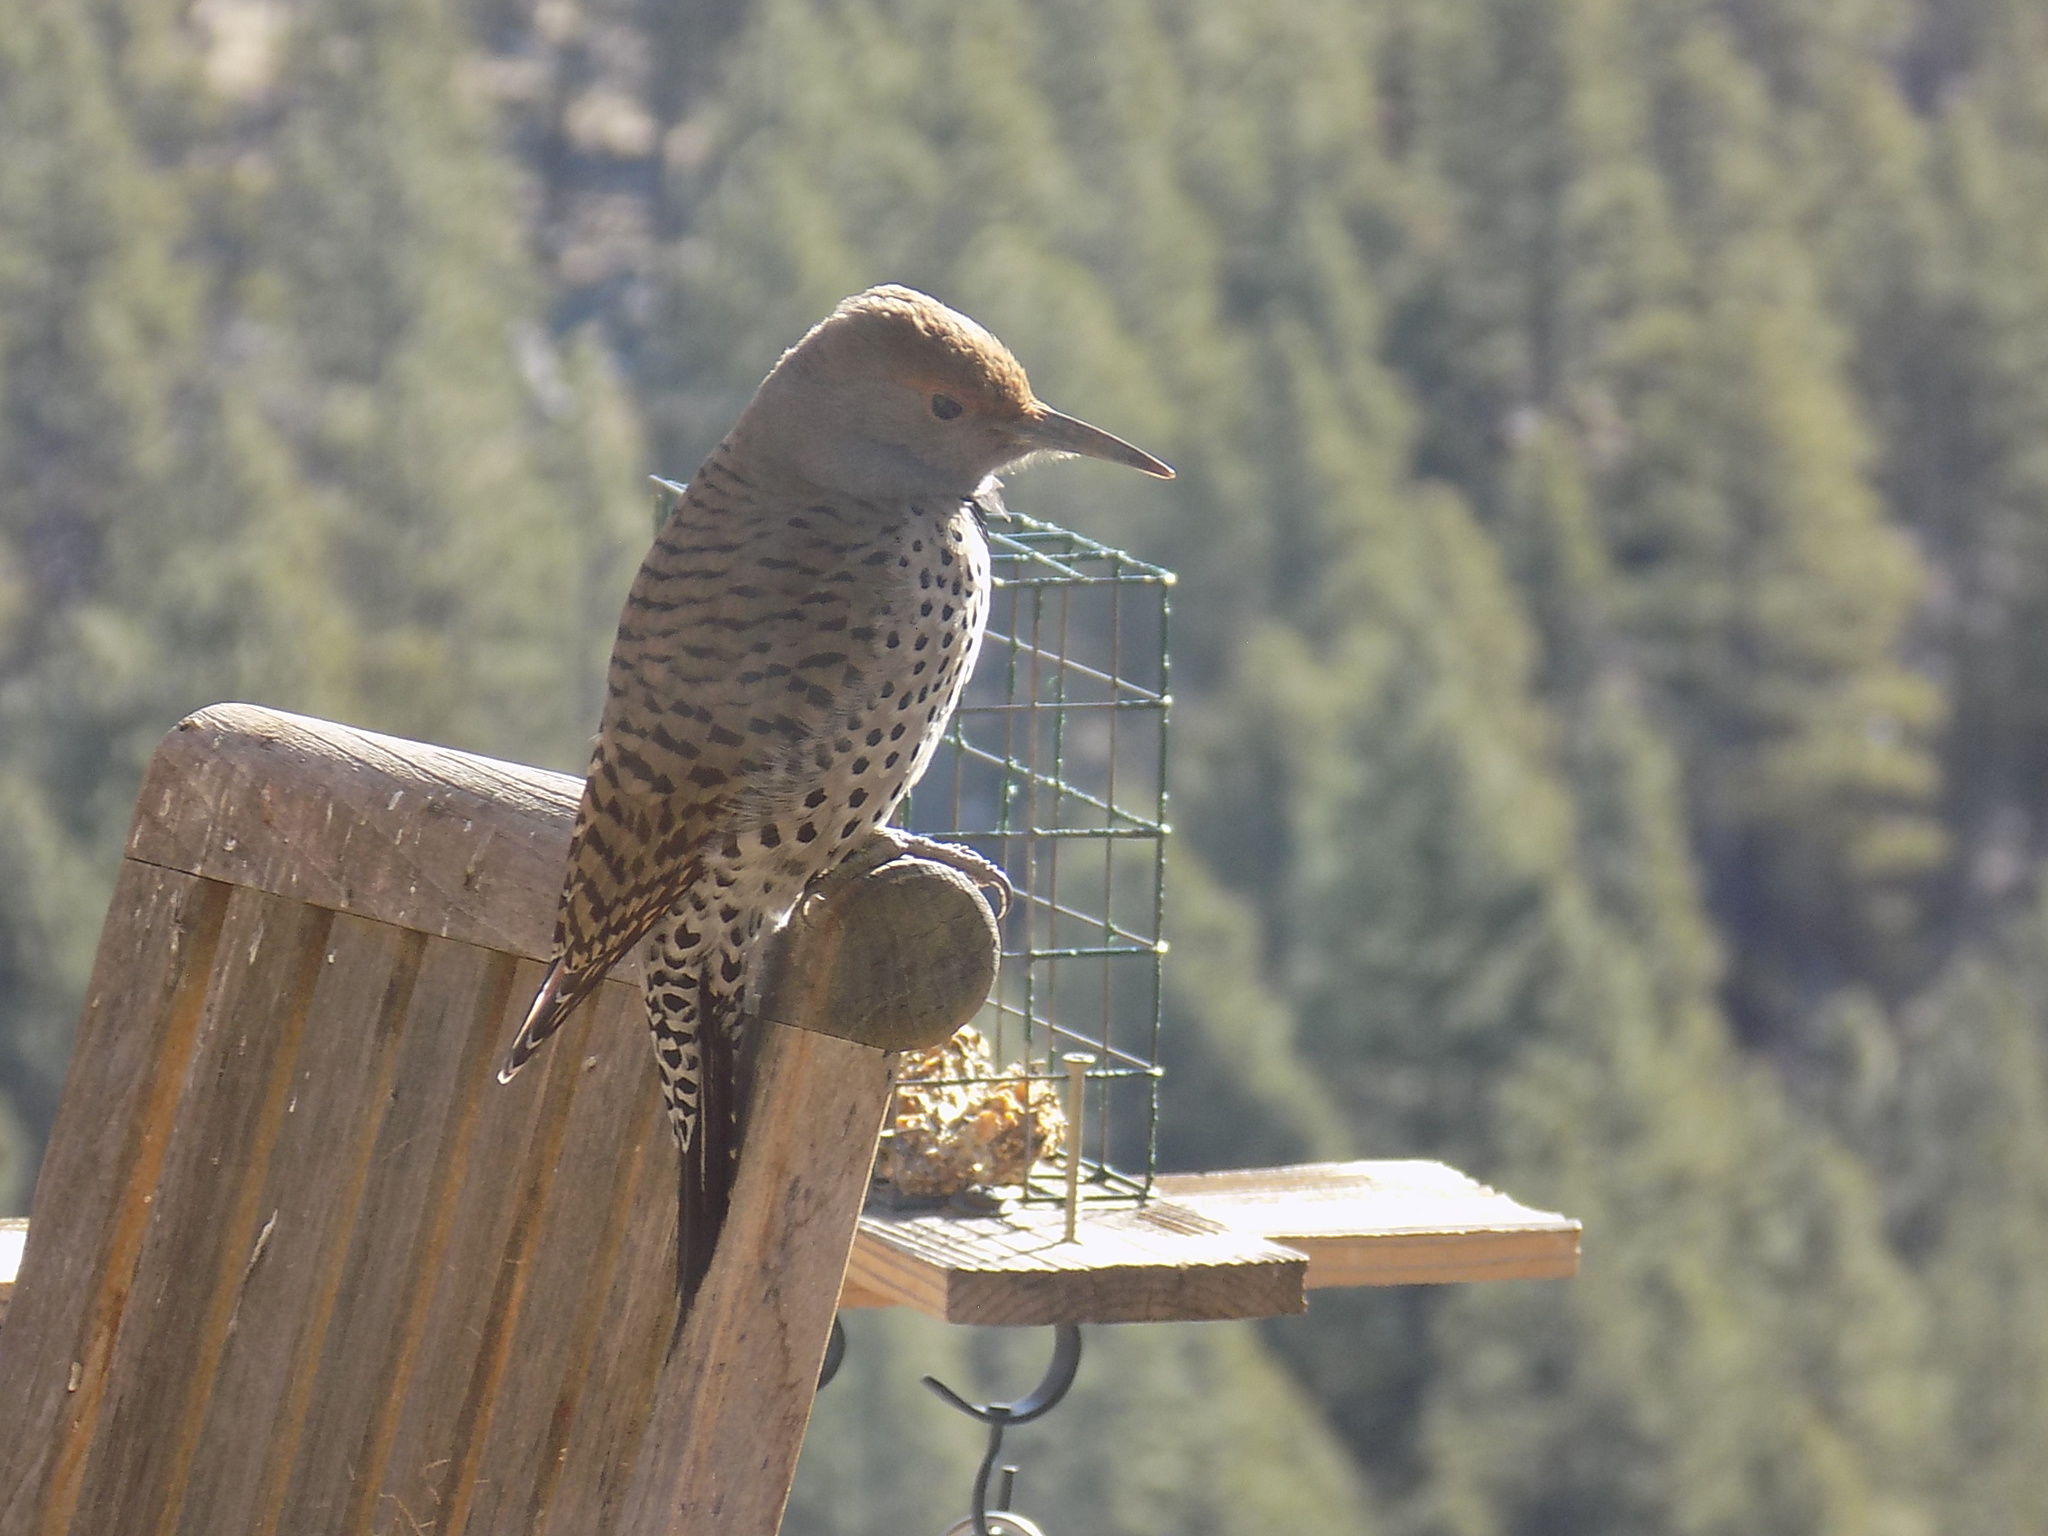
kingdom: Animalia
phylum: Chordata
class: Aves
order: Piciformes
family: Picidae
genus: Colaptes
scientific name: Colaptes auratus
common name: Northern flicker
